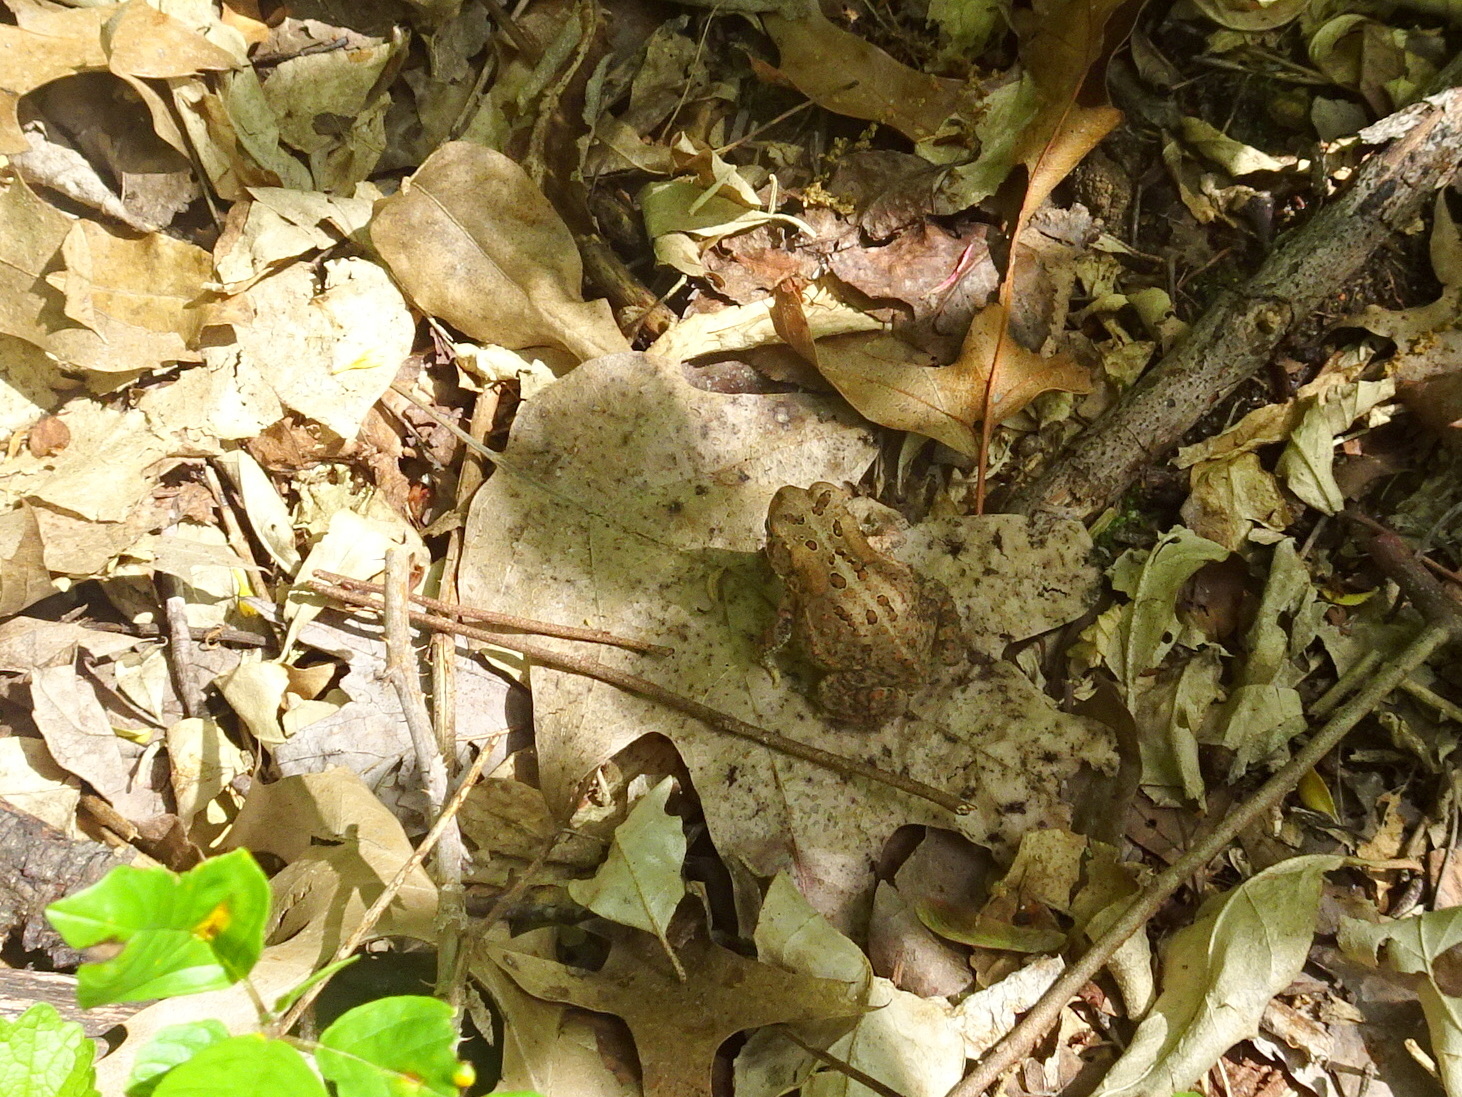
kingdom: Animalia
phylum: Chordata
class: Amphibia
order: Anura
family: Bufonidae
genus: Anaxyrus
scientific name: Anaxyrus americanus
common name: American toad
